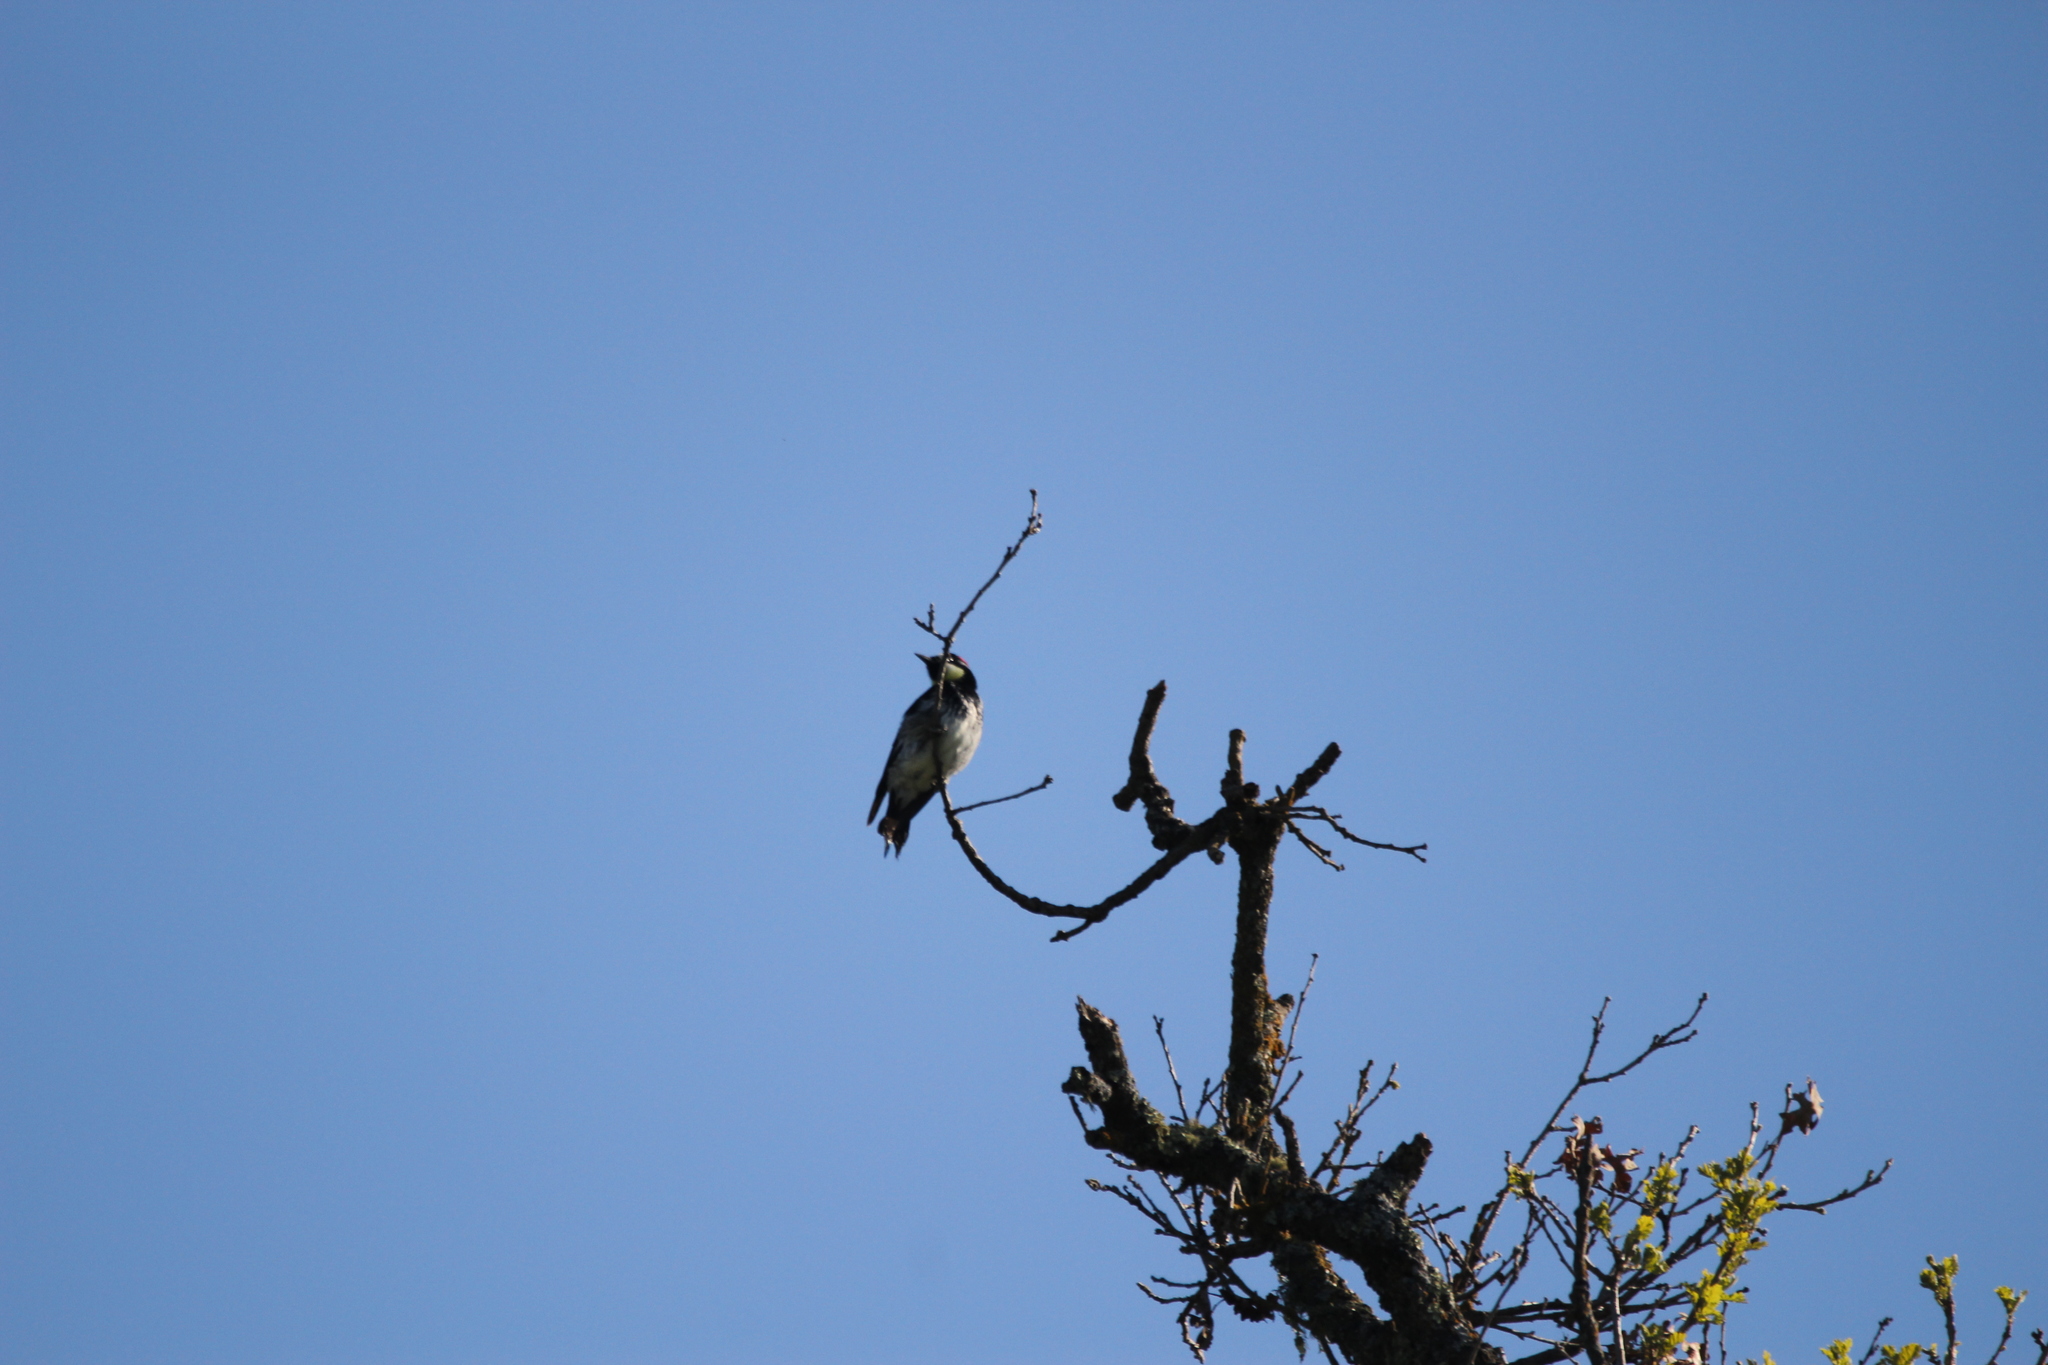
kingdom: Animalia
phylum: Chordata
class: Aves
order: Piciformes
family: Picidae
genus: Melanerpes
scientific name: Melanerpes formicivorus
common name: Acorn woodpecker
